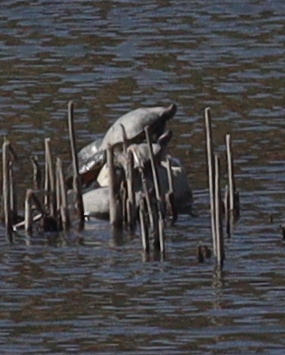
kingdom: Animalia
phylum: Chordata
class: Testudines
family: Emydidae
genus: Trachemys
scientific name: Trachemys scripta
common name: Slider
